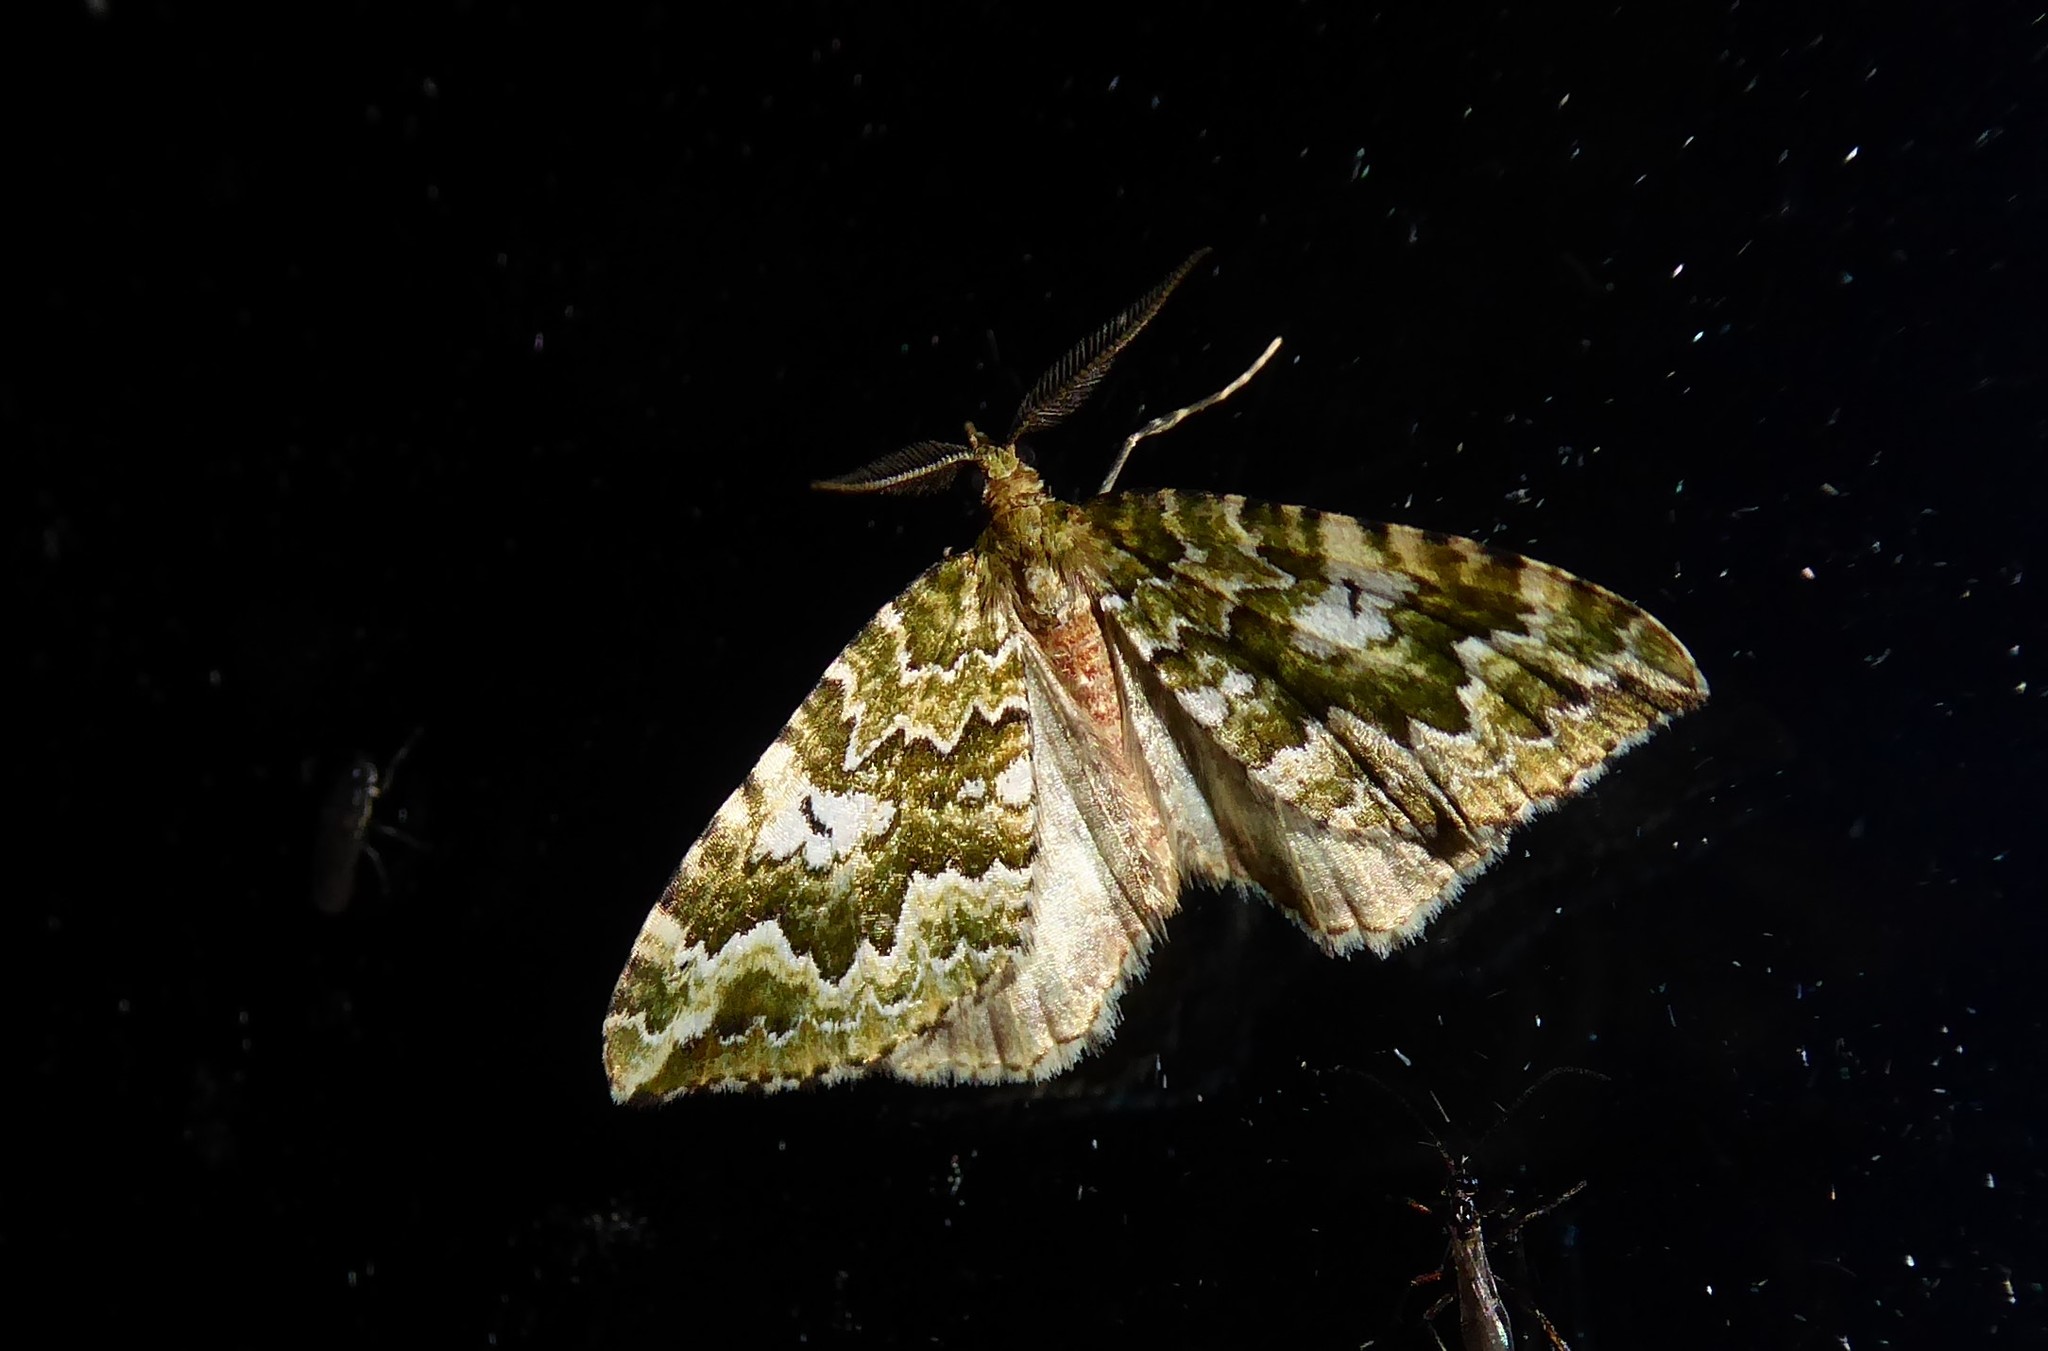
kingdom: Animalia
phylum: Arthropoda
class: Insecta
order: Lepidoptera
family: Geometridae
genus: Asaphodes
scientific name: Asaphodes beata
